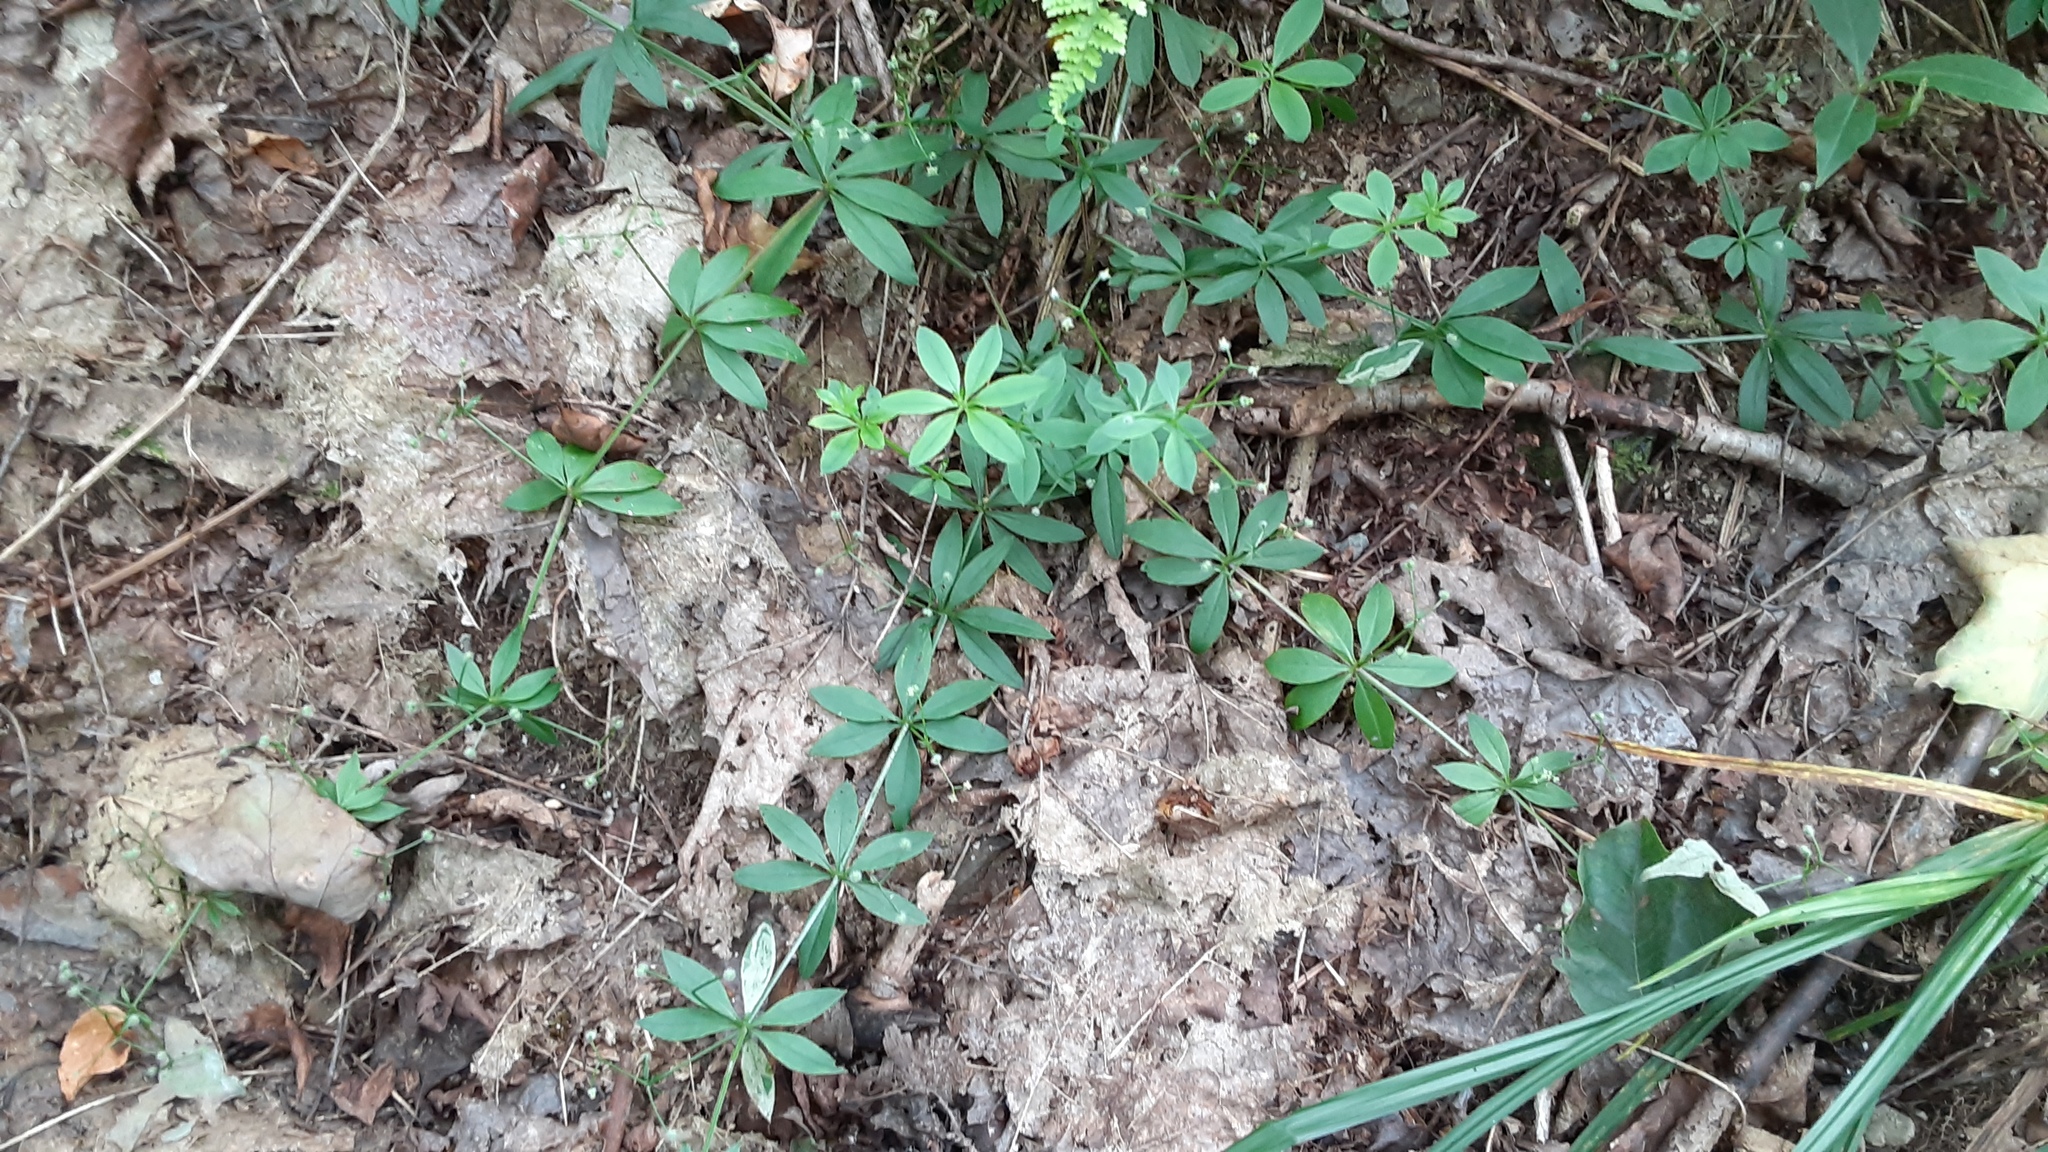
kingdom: Plantae
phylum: Tracheophyta
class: Magnoliopsida
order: Gentianales
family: Rubiaceae
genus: Galium
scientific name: Galium triflorum
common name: Fragrant bedstraw
